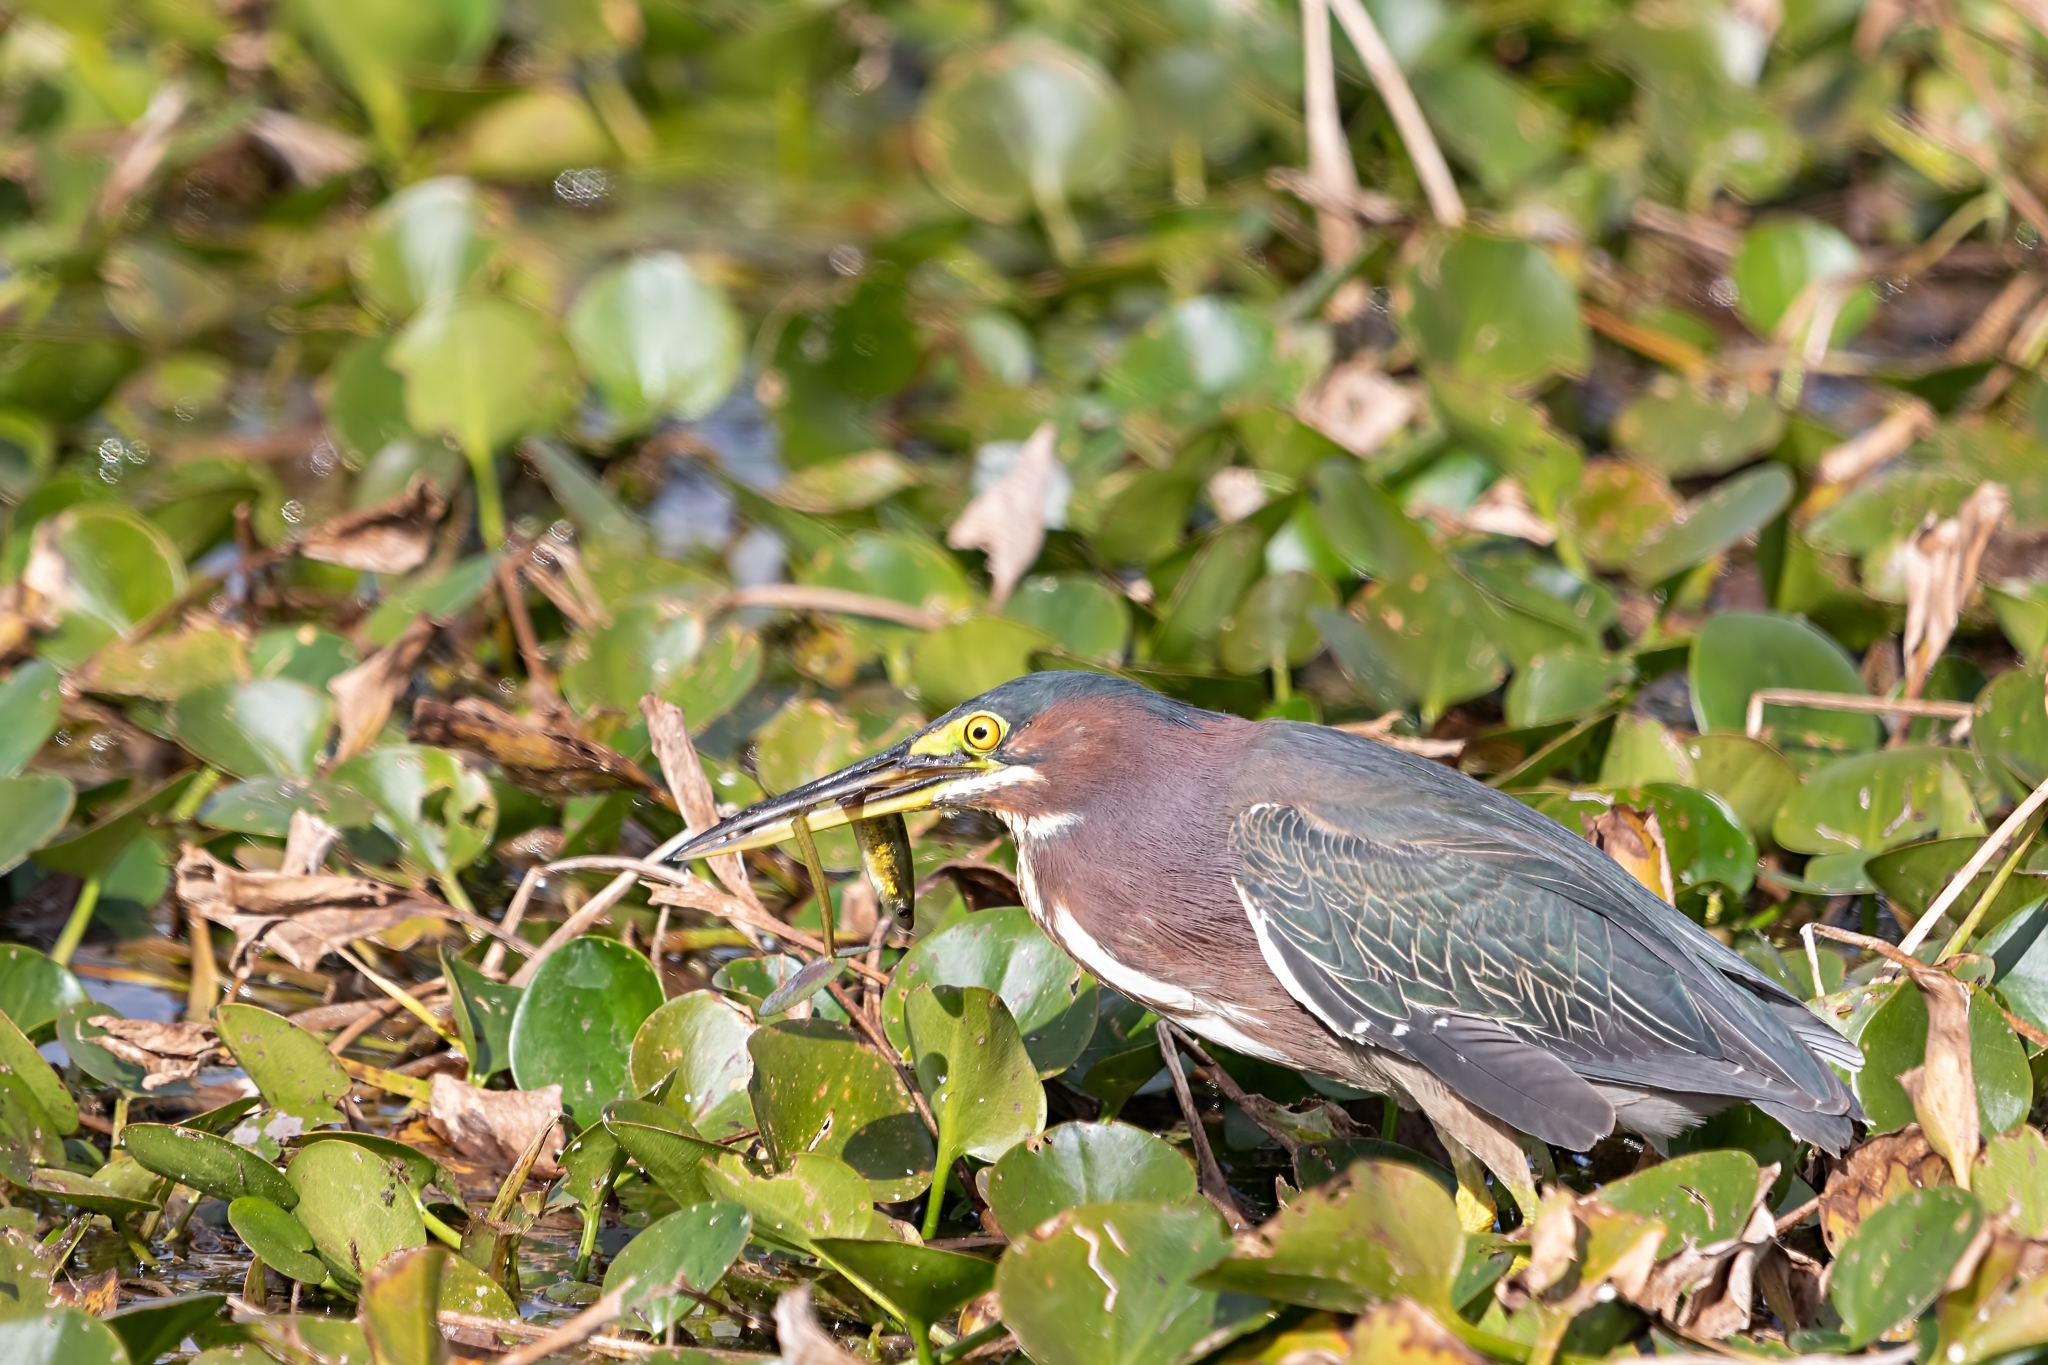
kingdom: Animalia
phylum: Chordata
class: Aves
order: Pelecaniformes
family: Ardeidae
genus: Butorides
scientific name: Butorides virescens
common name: Green heron
